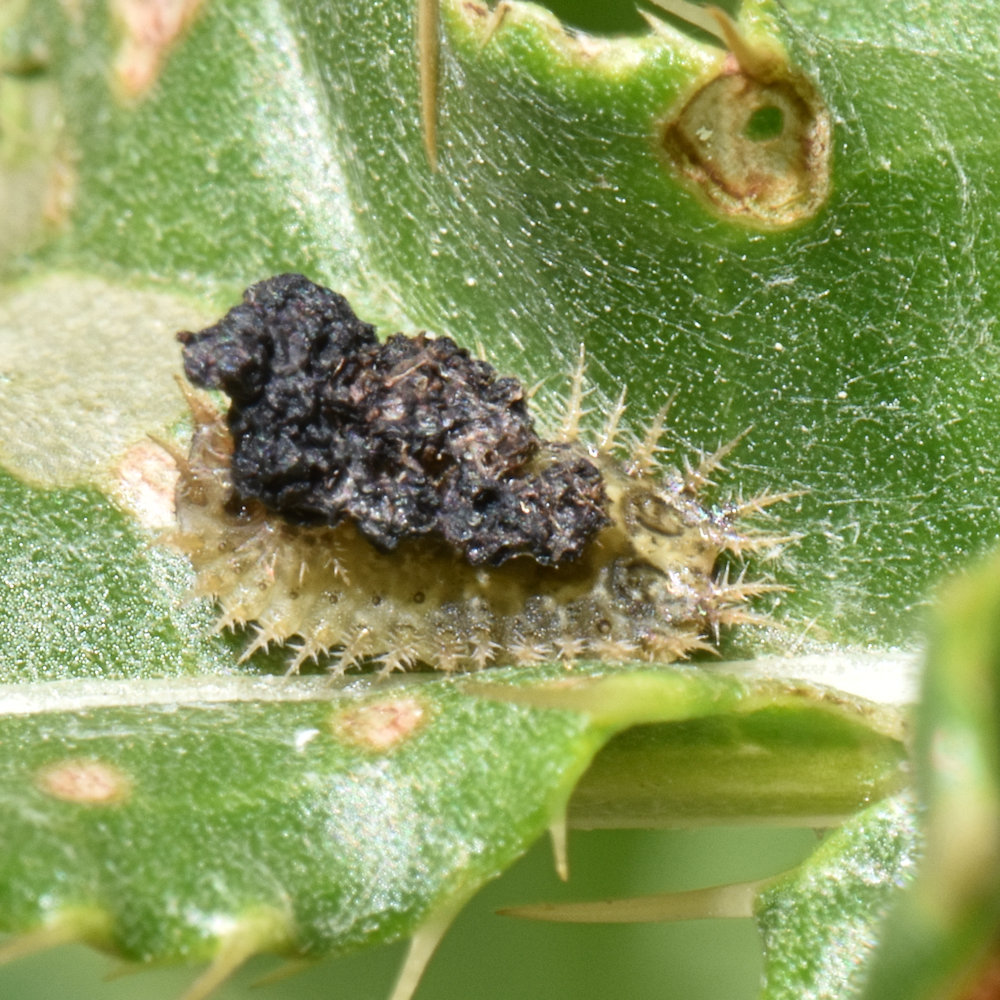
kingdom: Animalia
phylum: Arthropoda
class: Insecta
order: Coleoptera
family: Chrysomelidae
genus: Cassida
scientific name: Cassida rubiginosa
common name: Thistle tortoise beetle
